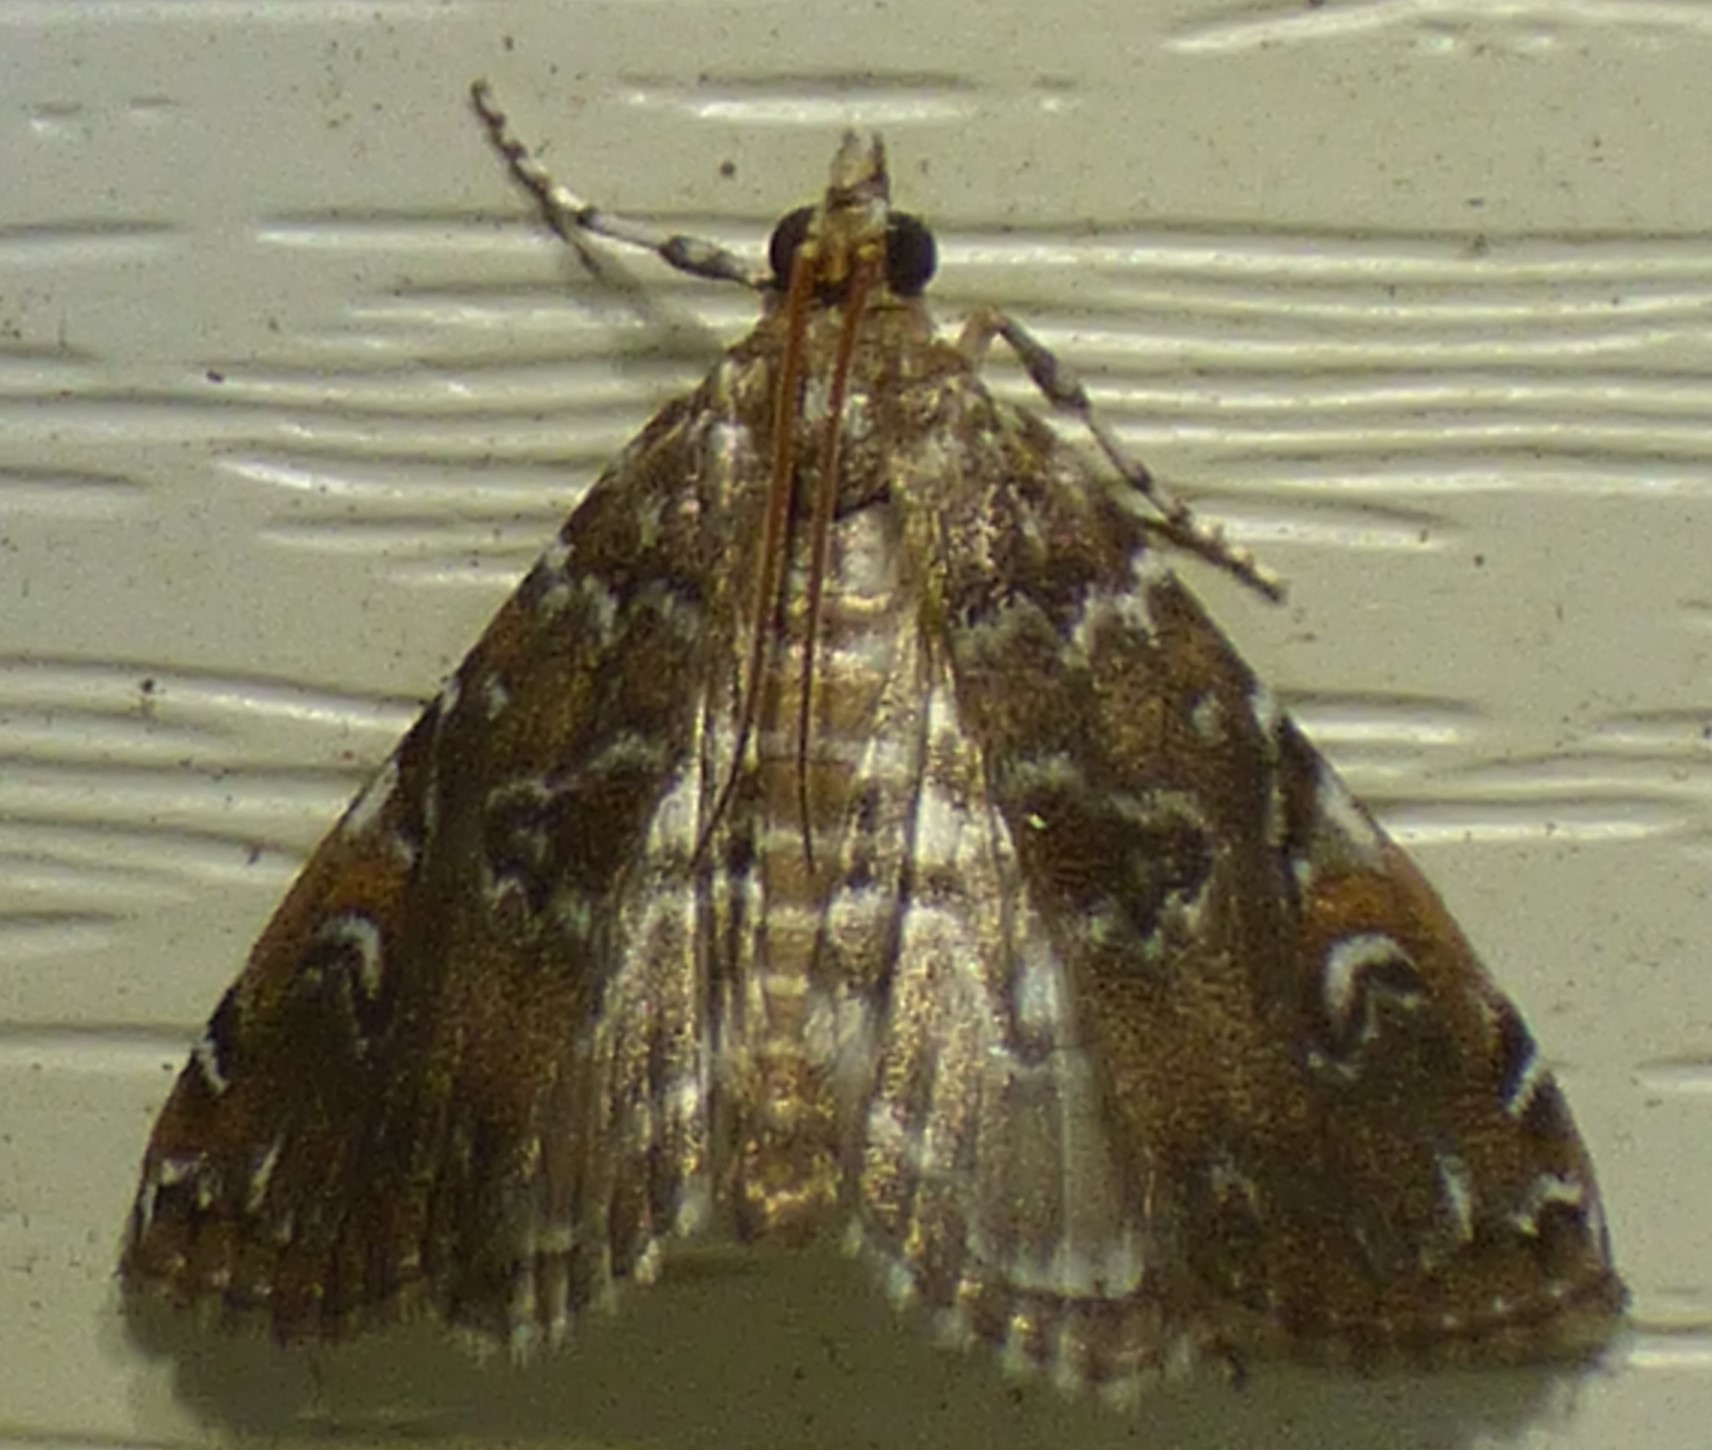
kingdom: Animalia
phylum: Arthropoda
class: Insecta
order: Lepidoptera
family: Crambidae
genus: Elophila
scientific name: Elophila gyralis
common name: Waterlily borer moth
